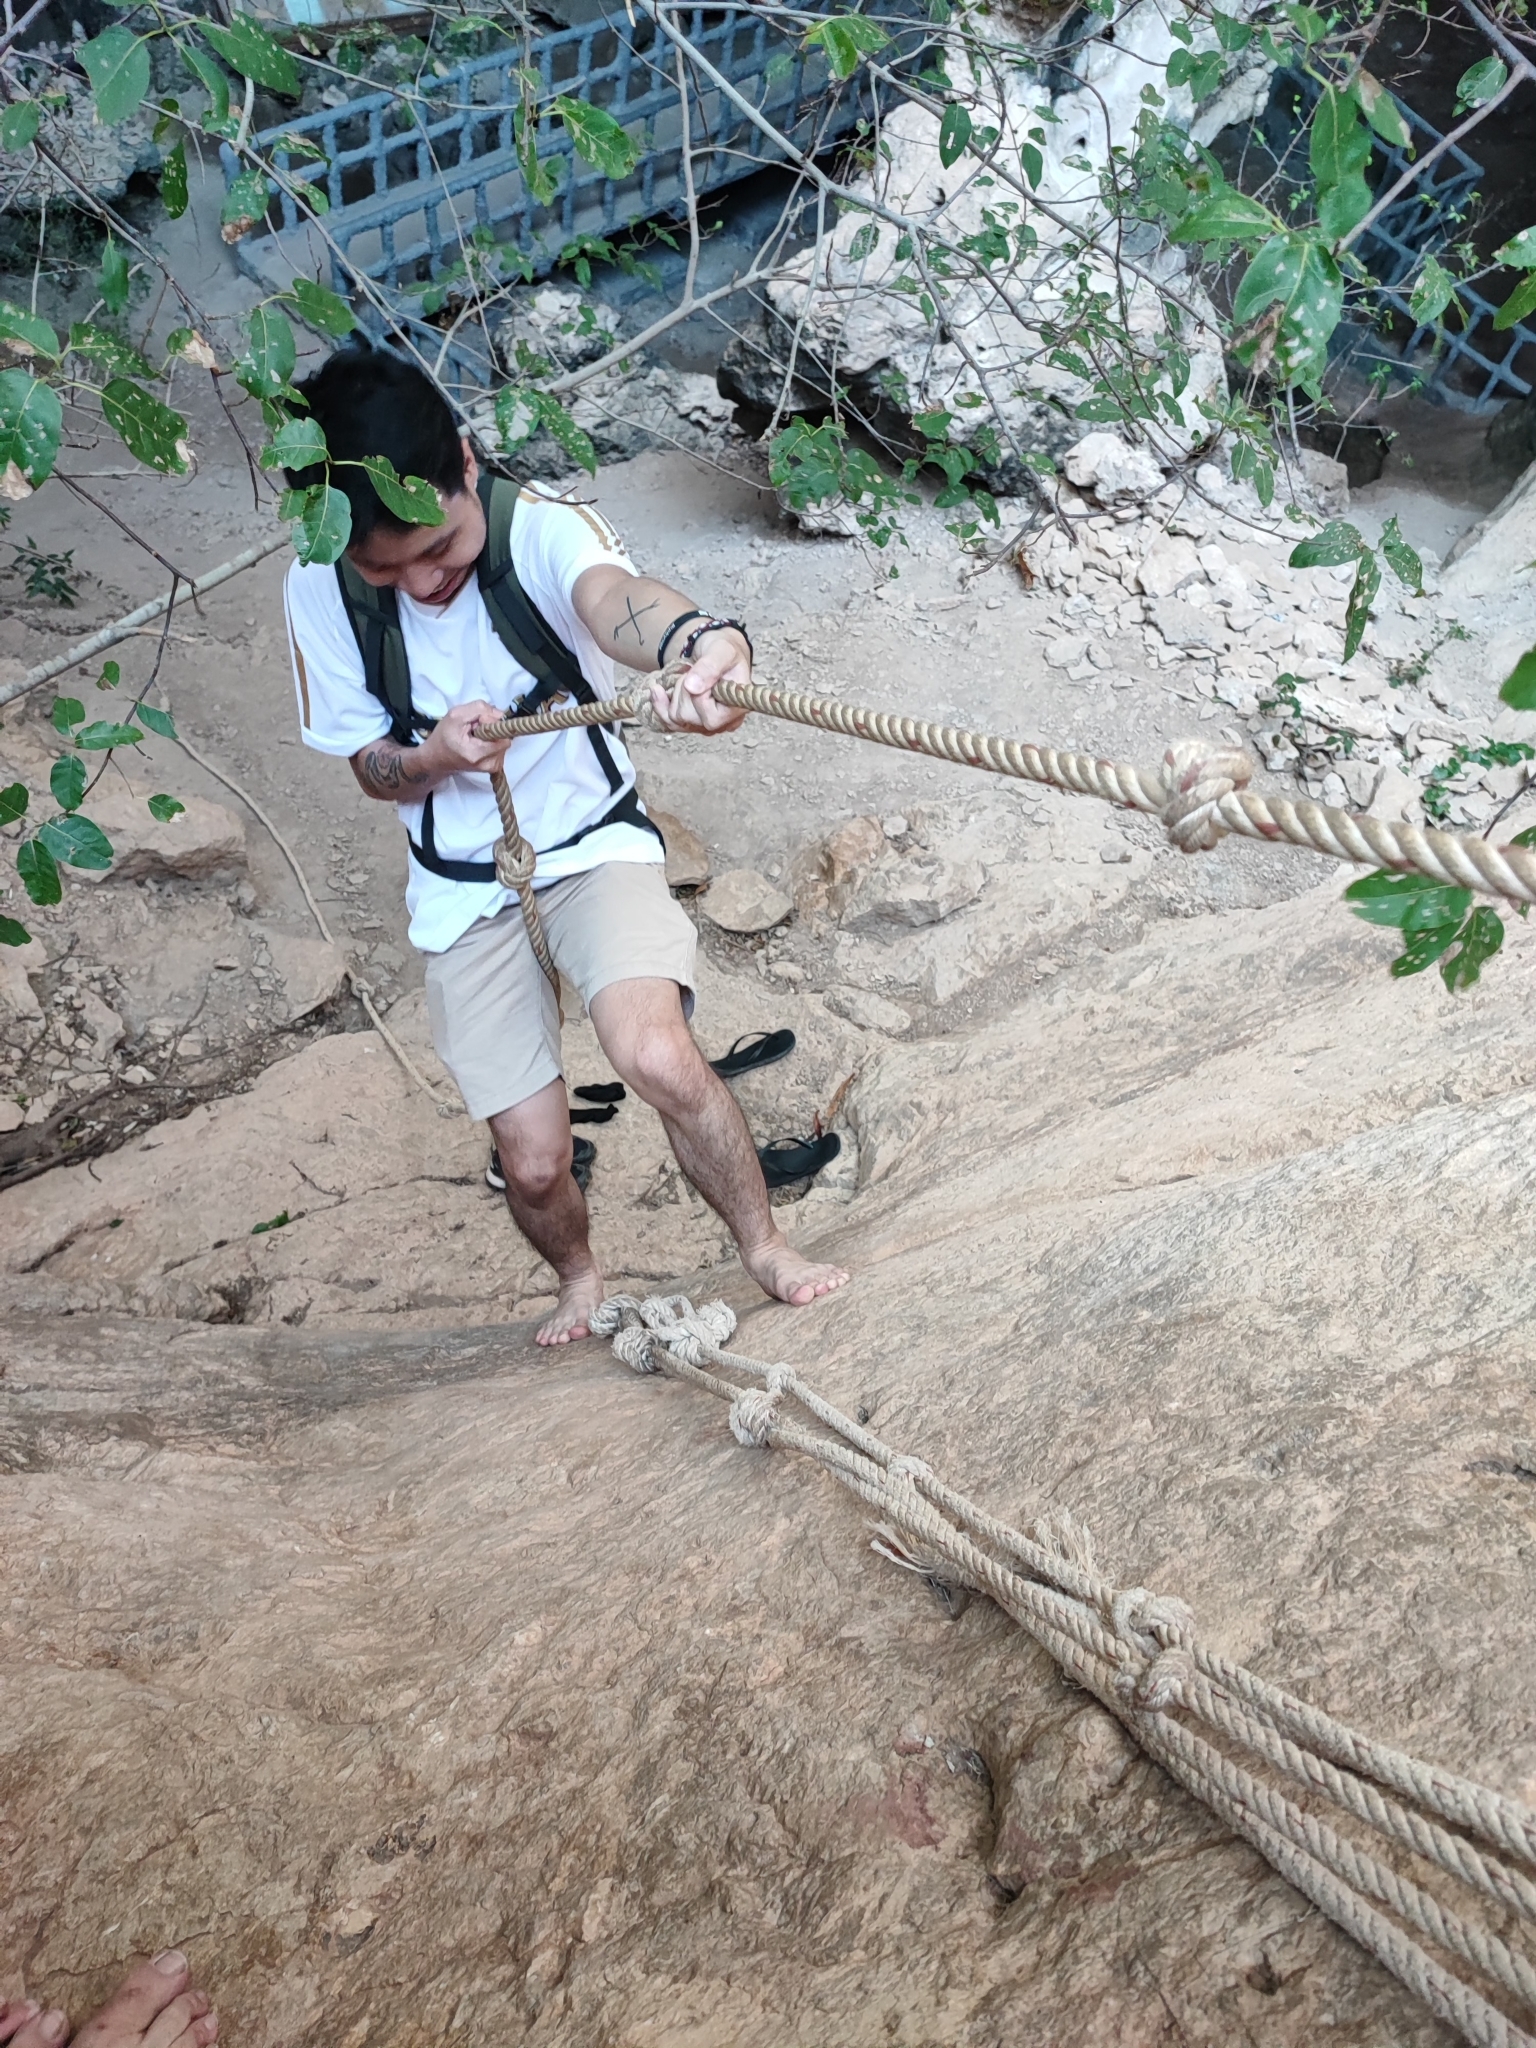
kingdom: Animalia
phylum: Chordata
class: Amphibia
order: Anura
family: Microhylidae
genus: Kaloula
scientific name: Kaloula pulchra
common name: Common,banded bullfrog
